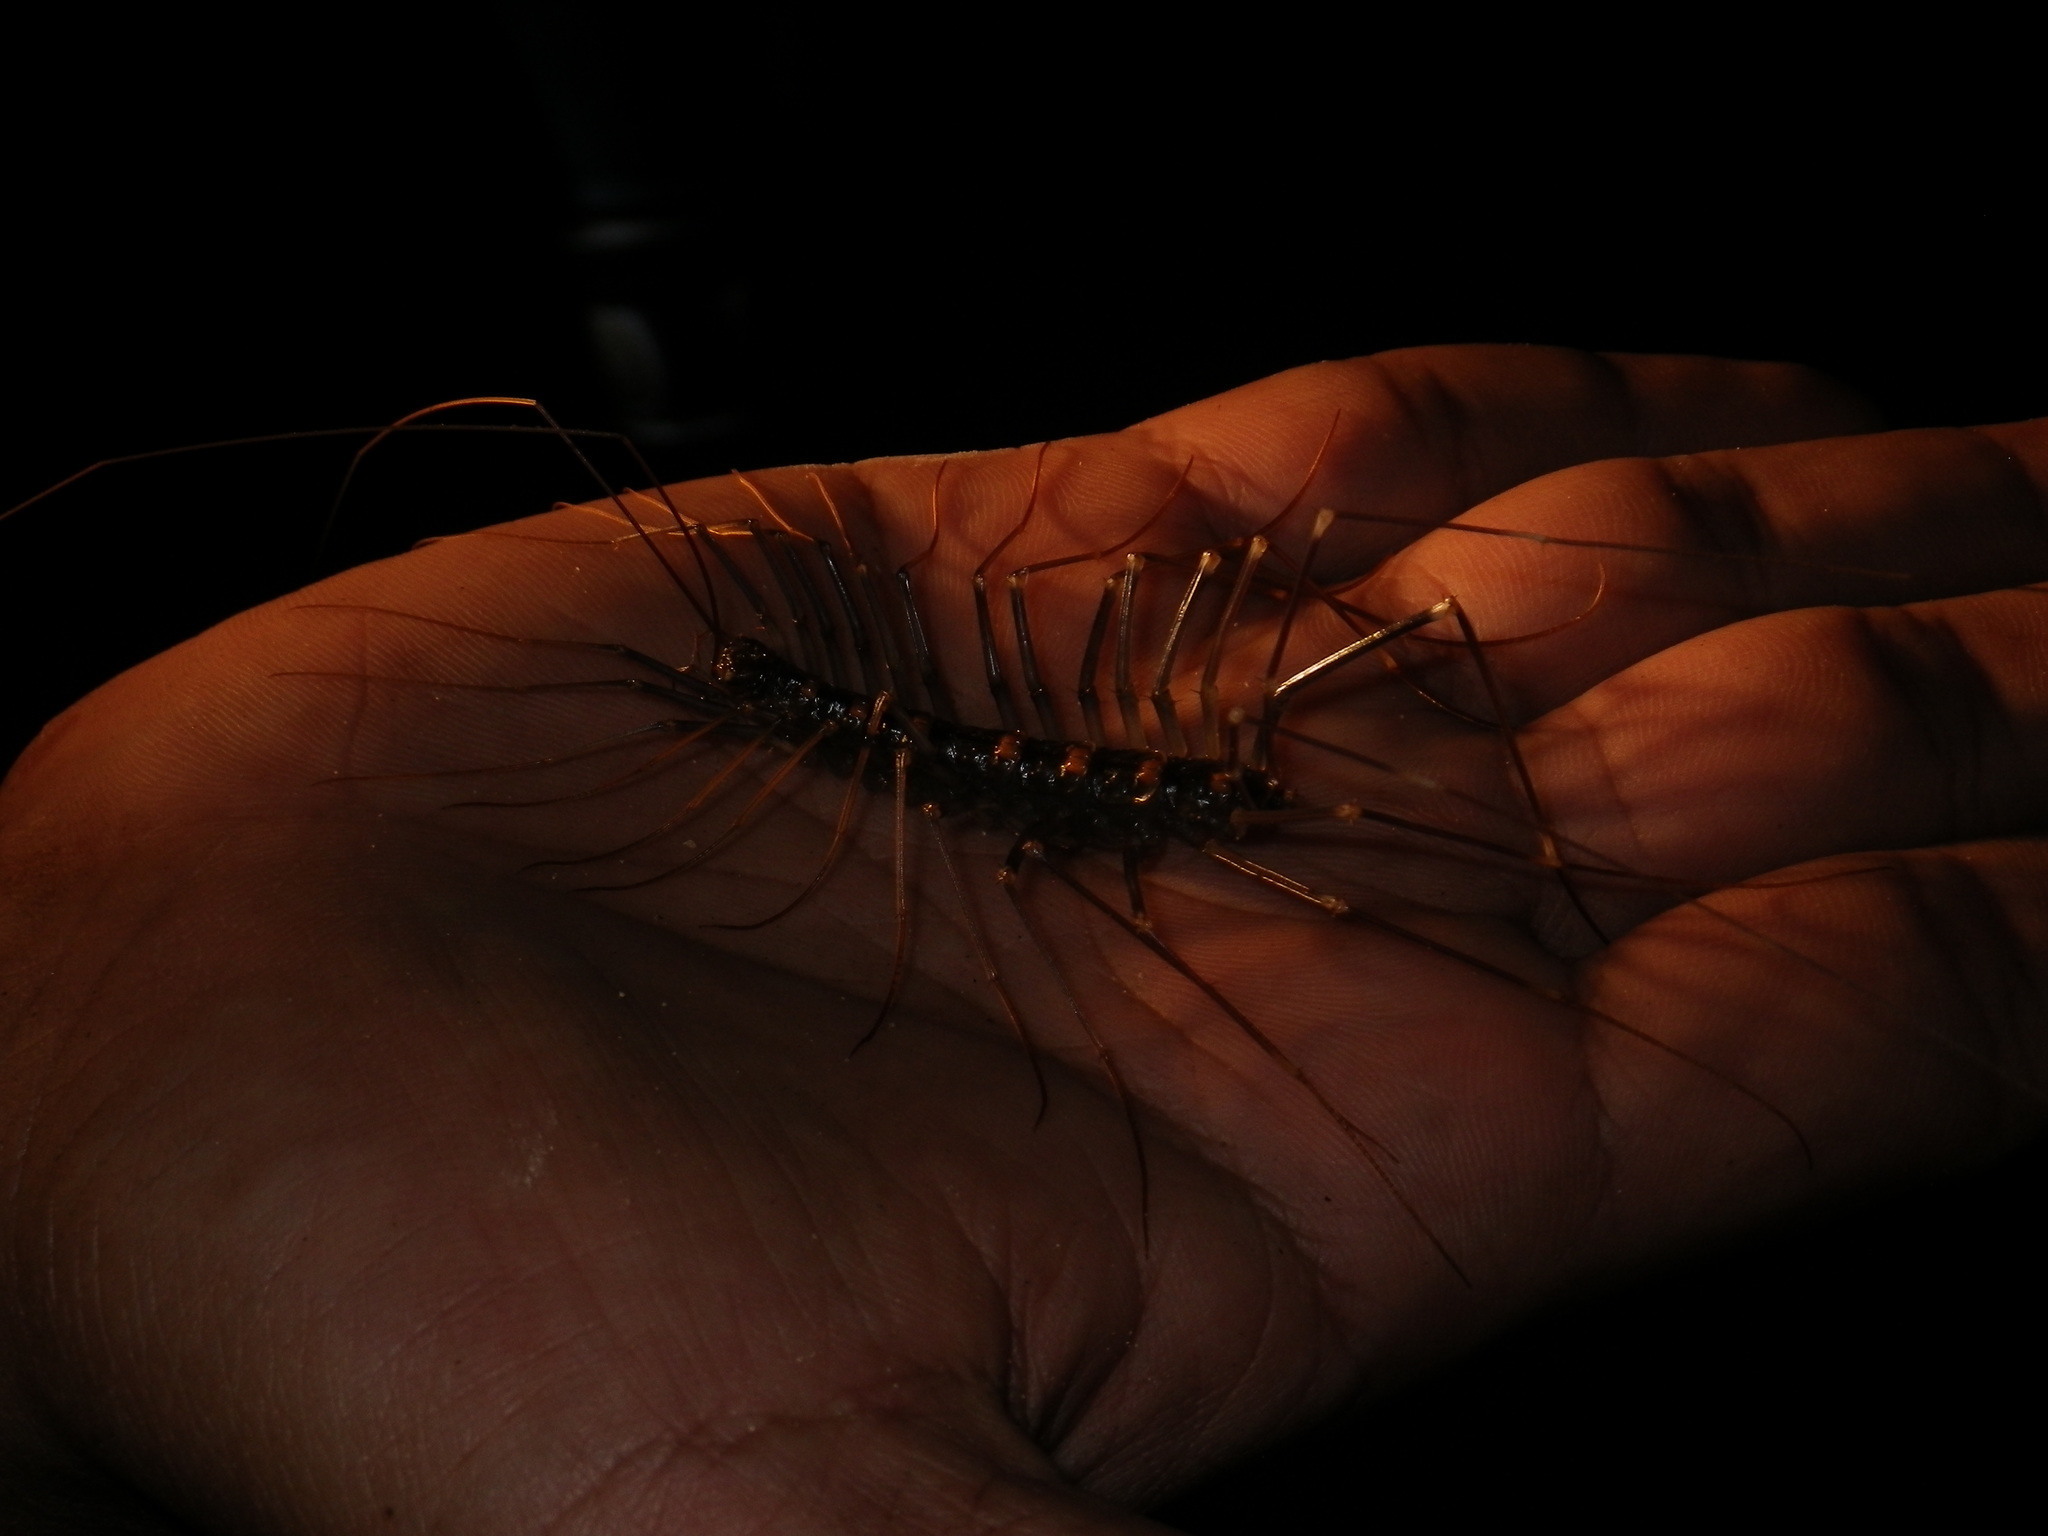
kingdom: Animalia
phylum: Arthropoda
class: Chilopoda
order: Scutigeromorpha
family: Scutigeridae
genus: Thereuopoda
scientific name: Thereuopoda longicornis
